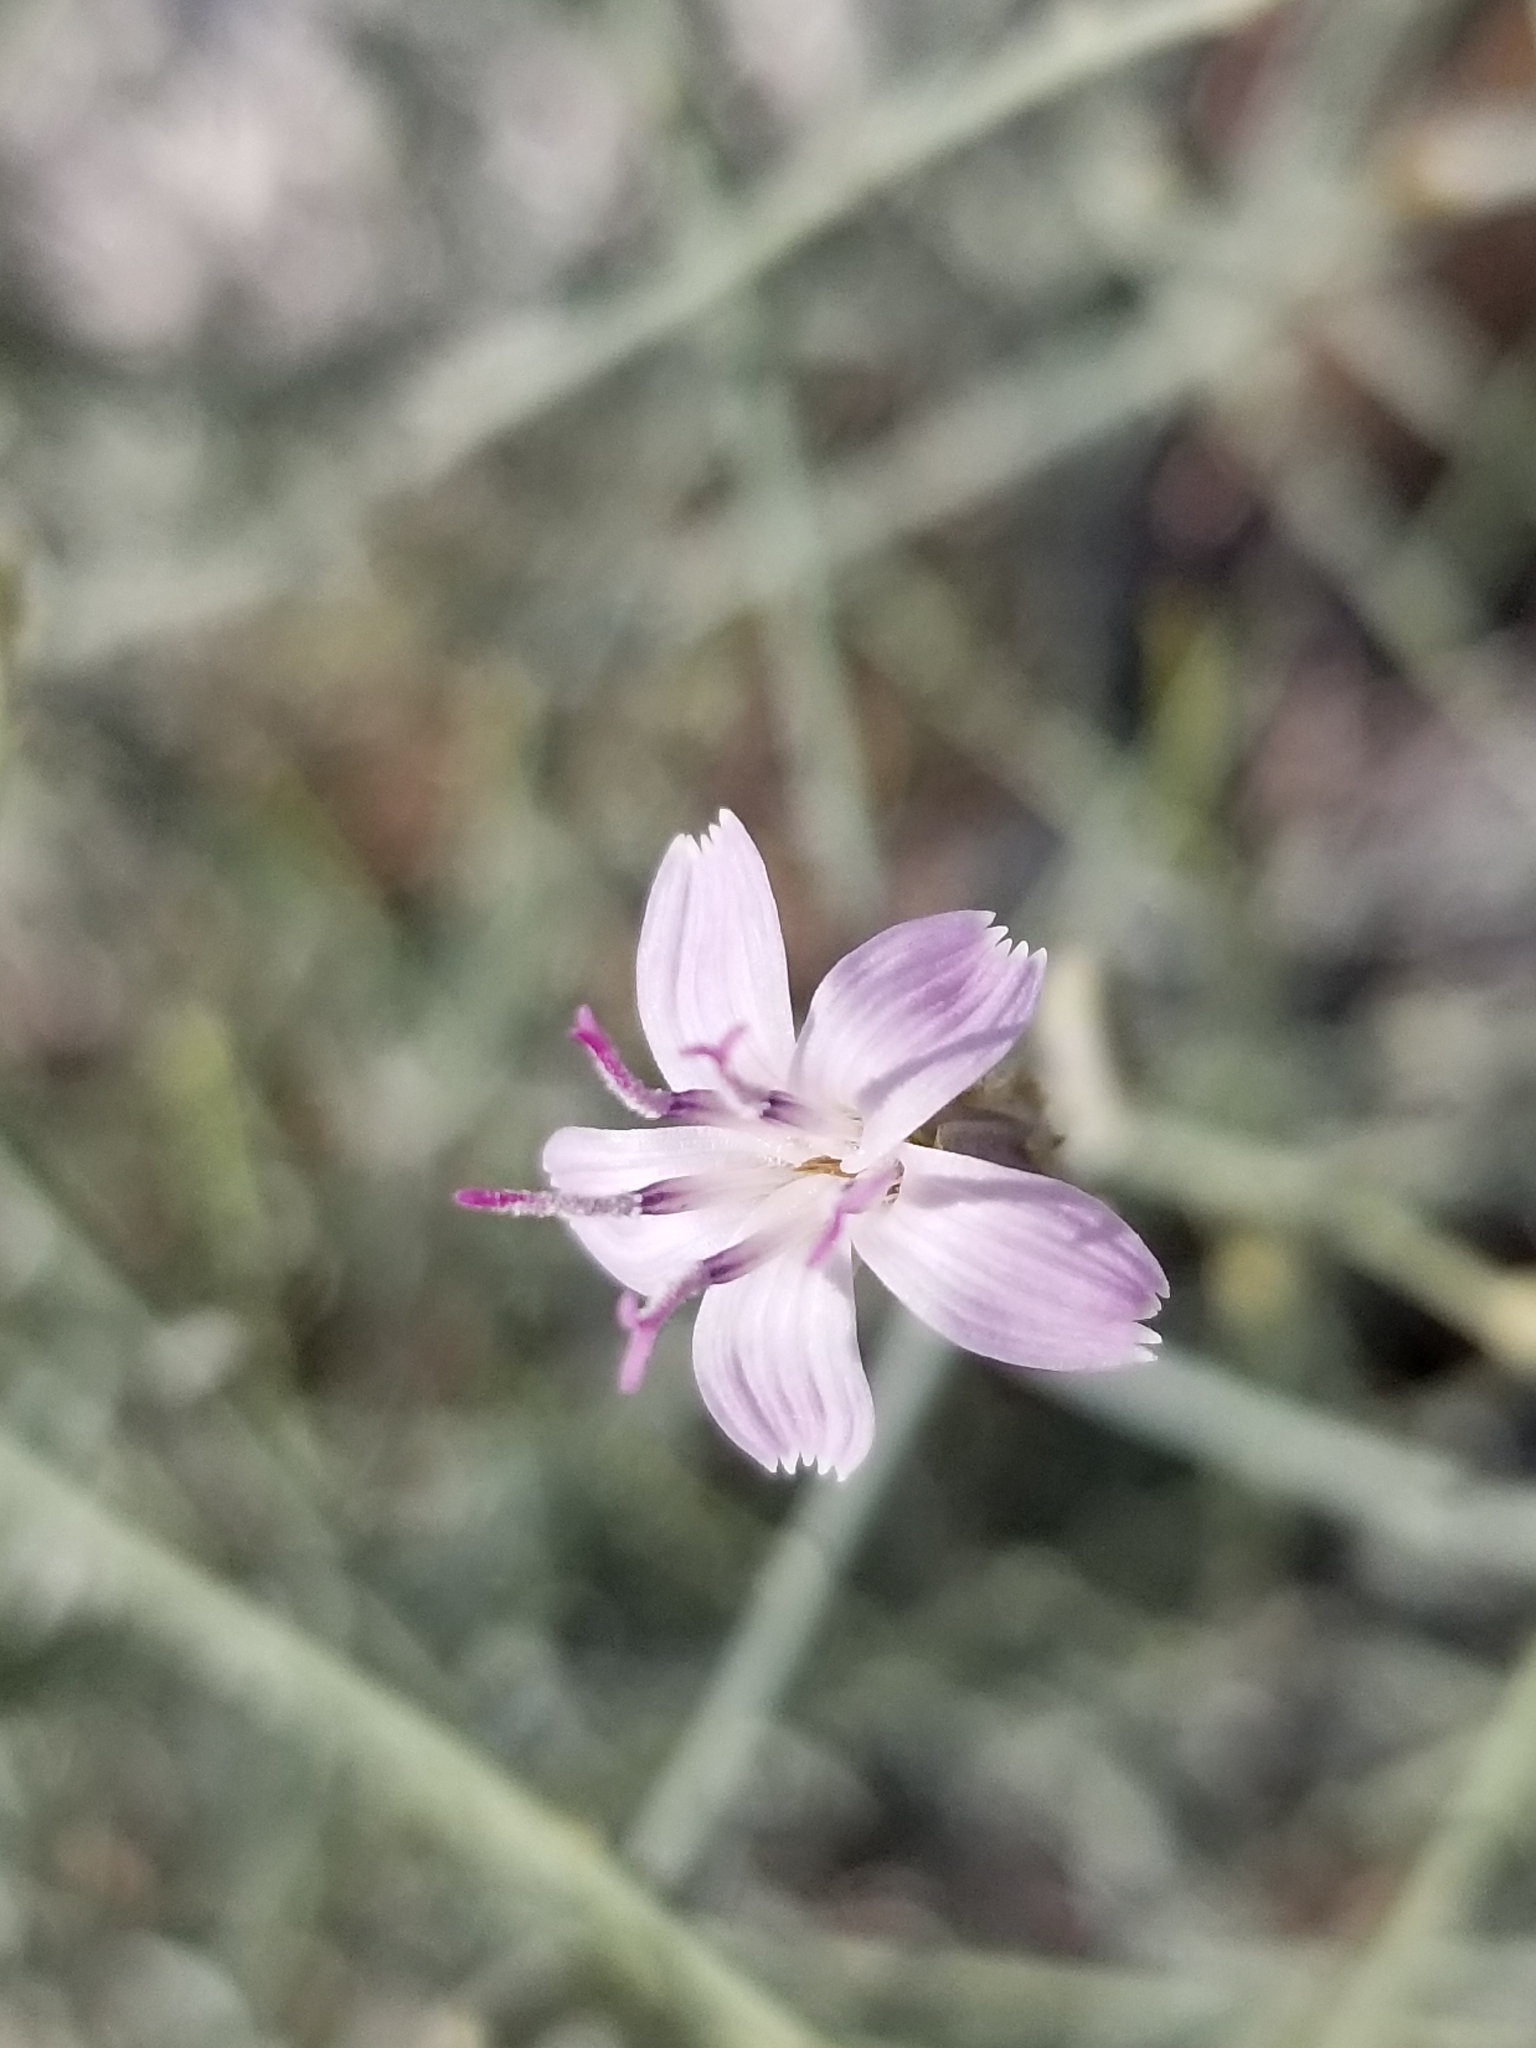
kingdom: Plantae
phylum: Tracheophyta
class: Magnoliopsida
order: Asterales
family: Asteraceae
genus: Stephanomeria
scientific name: Stephanomeria pauciflora
